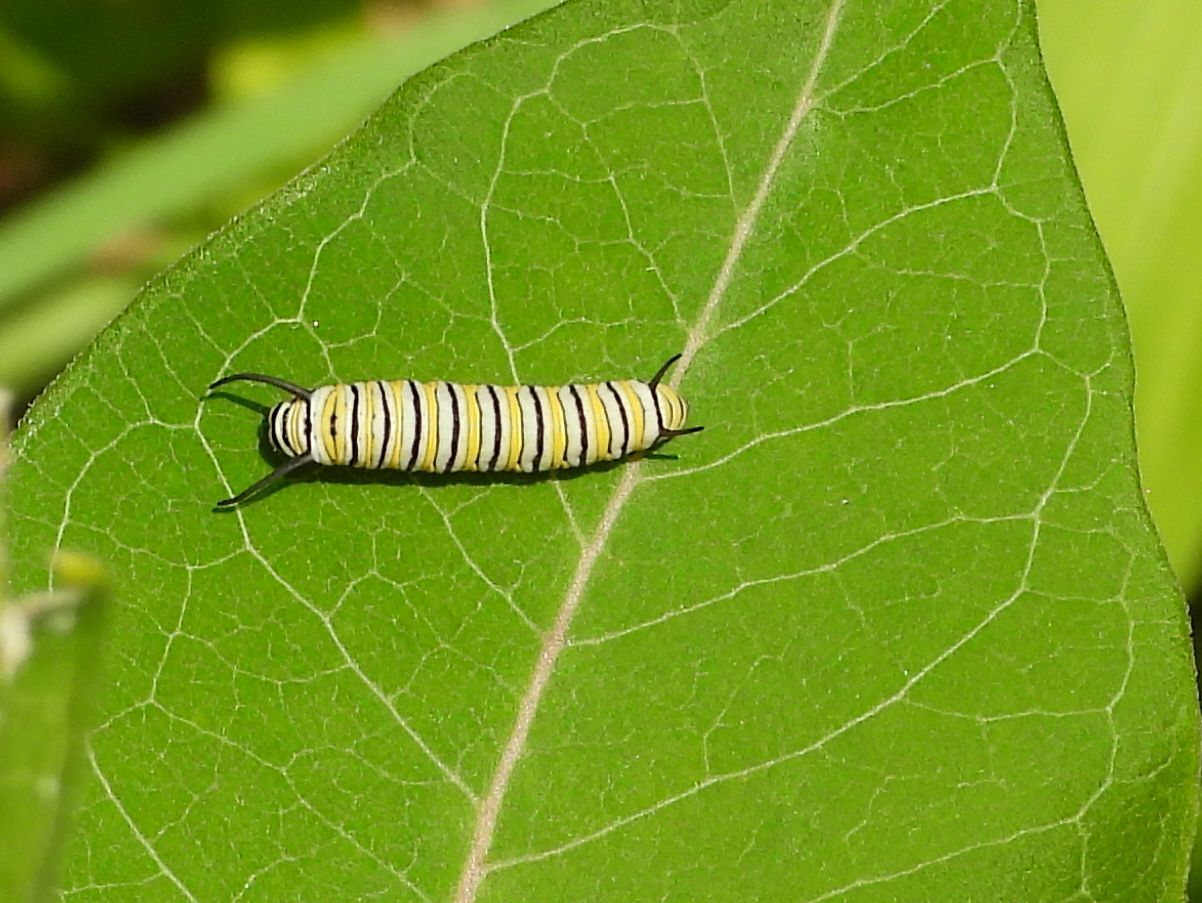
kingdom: Animalia
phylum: Arthropoda
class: Insecta
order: Lepidoptera
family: Nymphalidae
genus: Danaus
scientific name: Danaus plexippus
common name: Monarch
